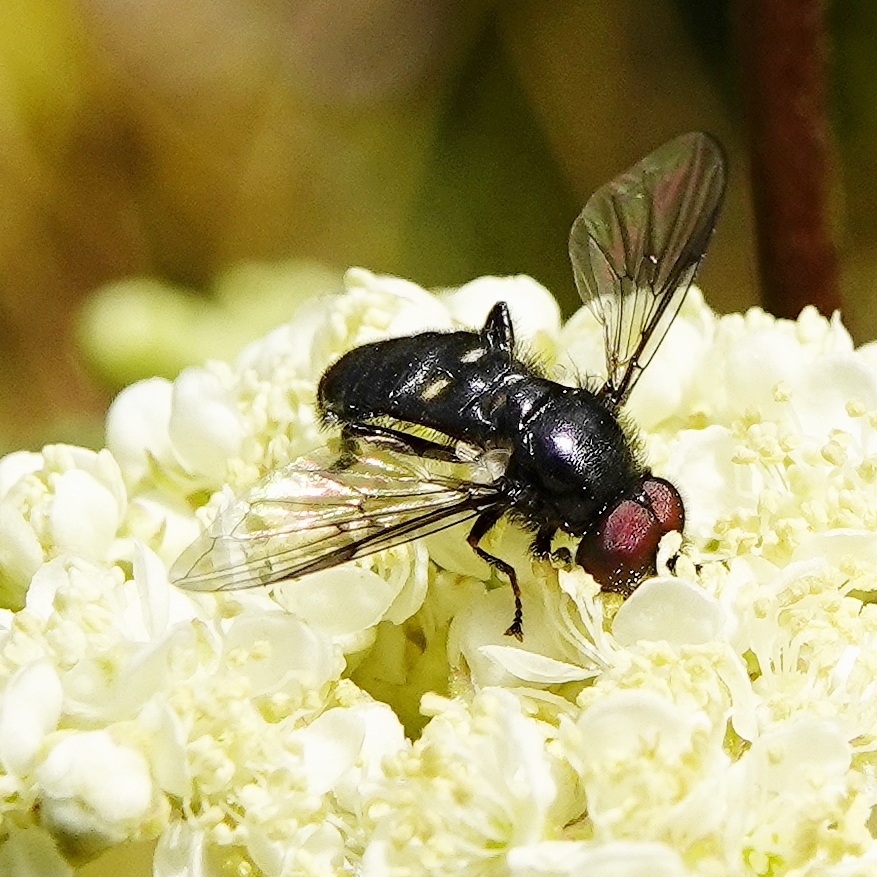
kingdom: Animalia
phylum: Arthropoda
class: Insecta
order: Diptera
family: Syrphidae
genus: Pipiza
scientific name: Pipiza
